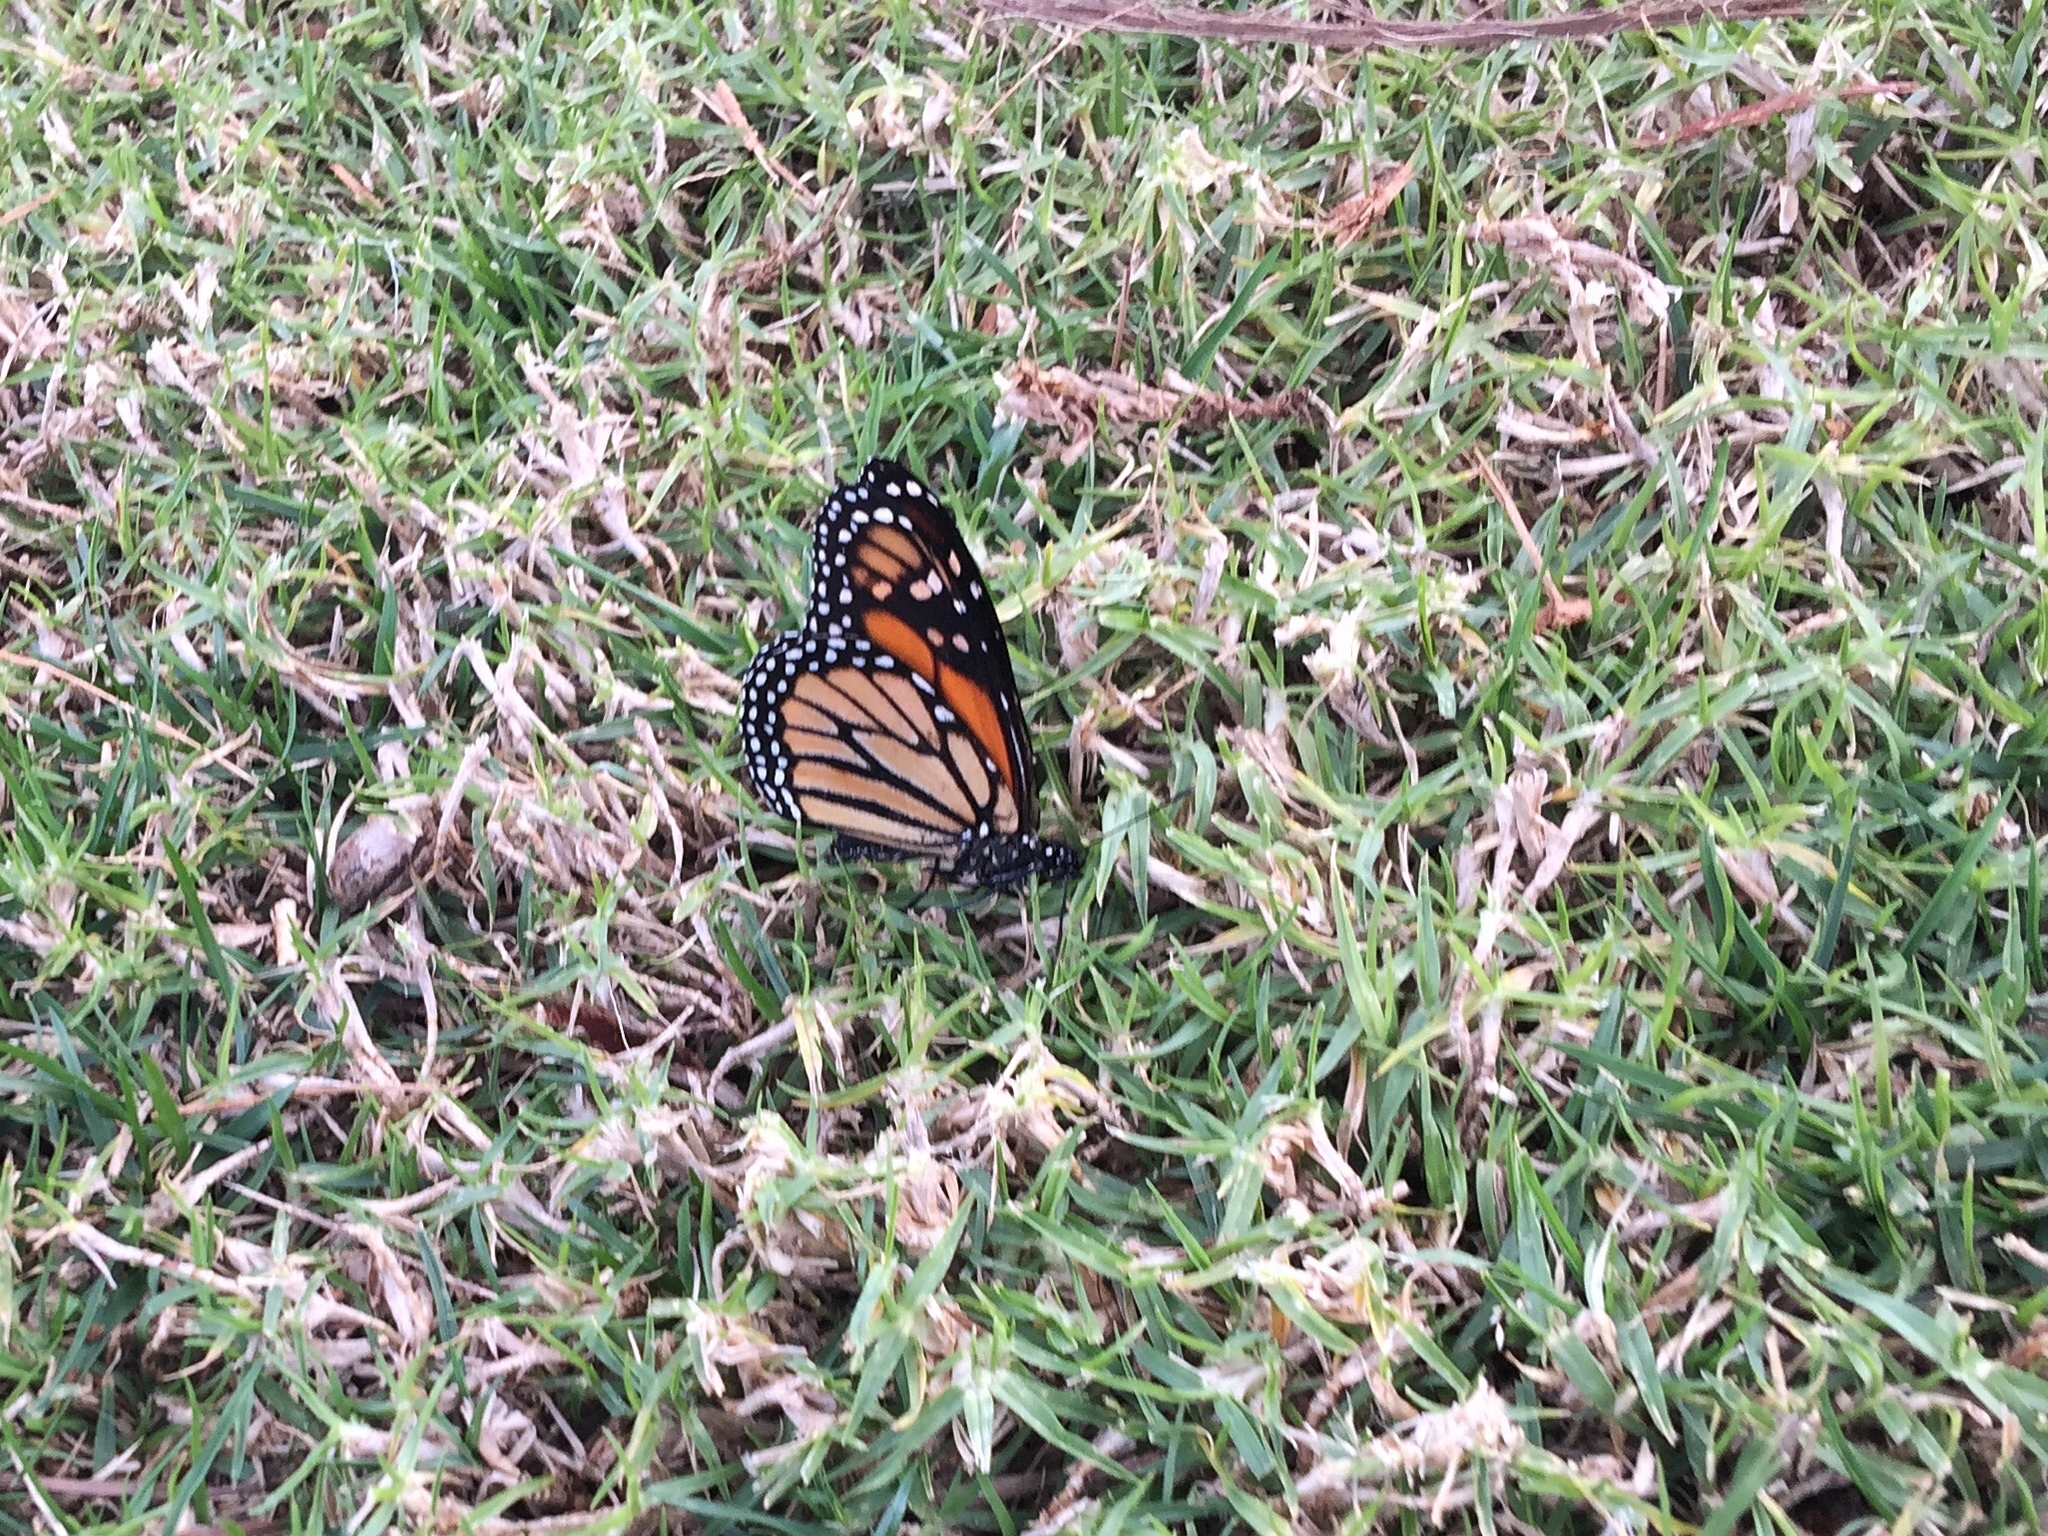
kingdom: Animalia
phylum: Arthropoda
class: Insecta
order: Lepidoptera
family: Nymphalidae
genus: Danaus
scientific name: Danaus plexippus
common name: Monarch
